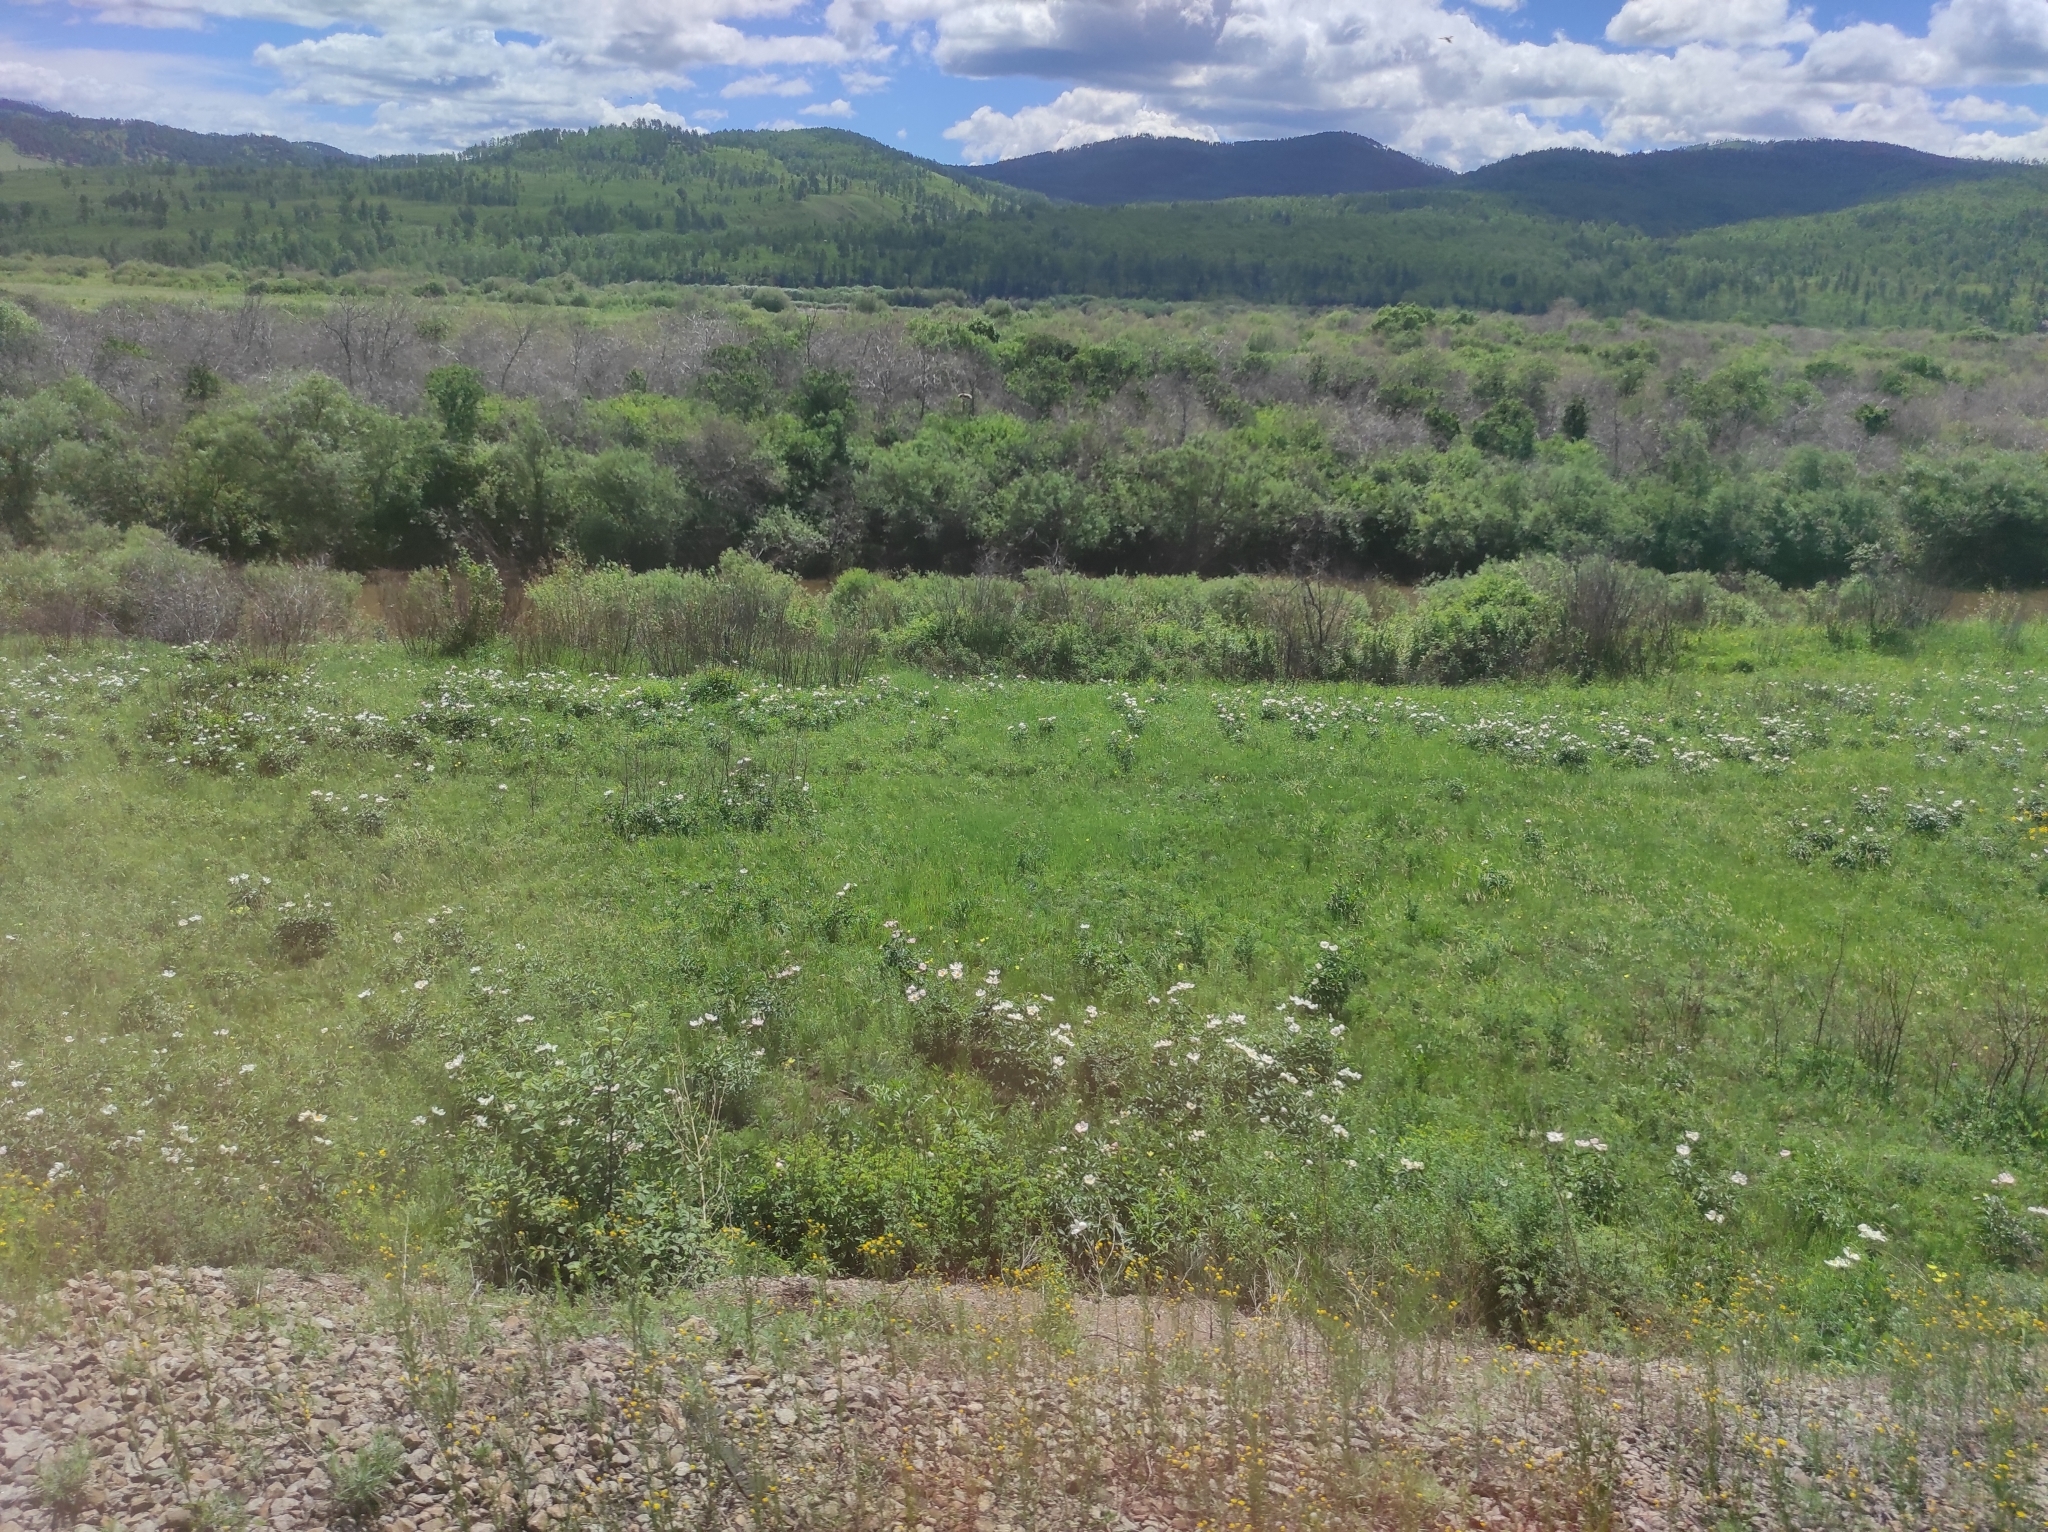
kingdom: Plantae
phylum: Tracheophyta
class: Magnoliopsida
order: Saxifragales
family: Paeoniaceae
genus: Paeonia
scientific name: Paeonia lactiflora
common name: Chinese peony
